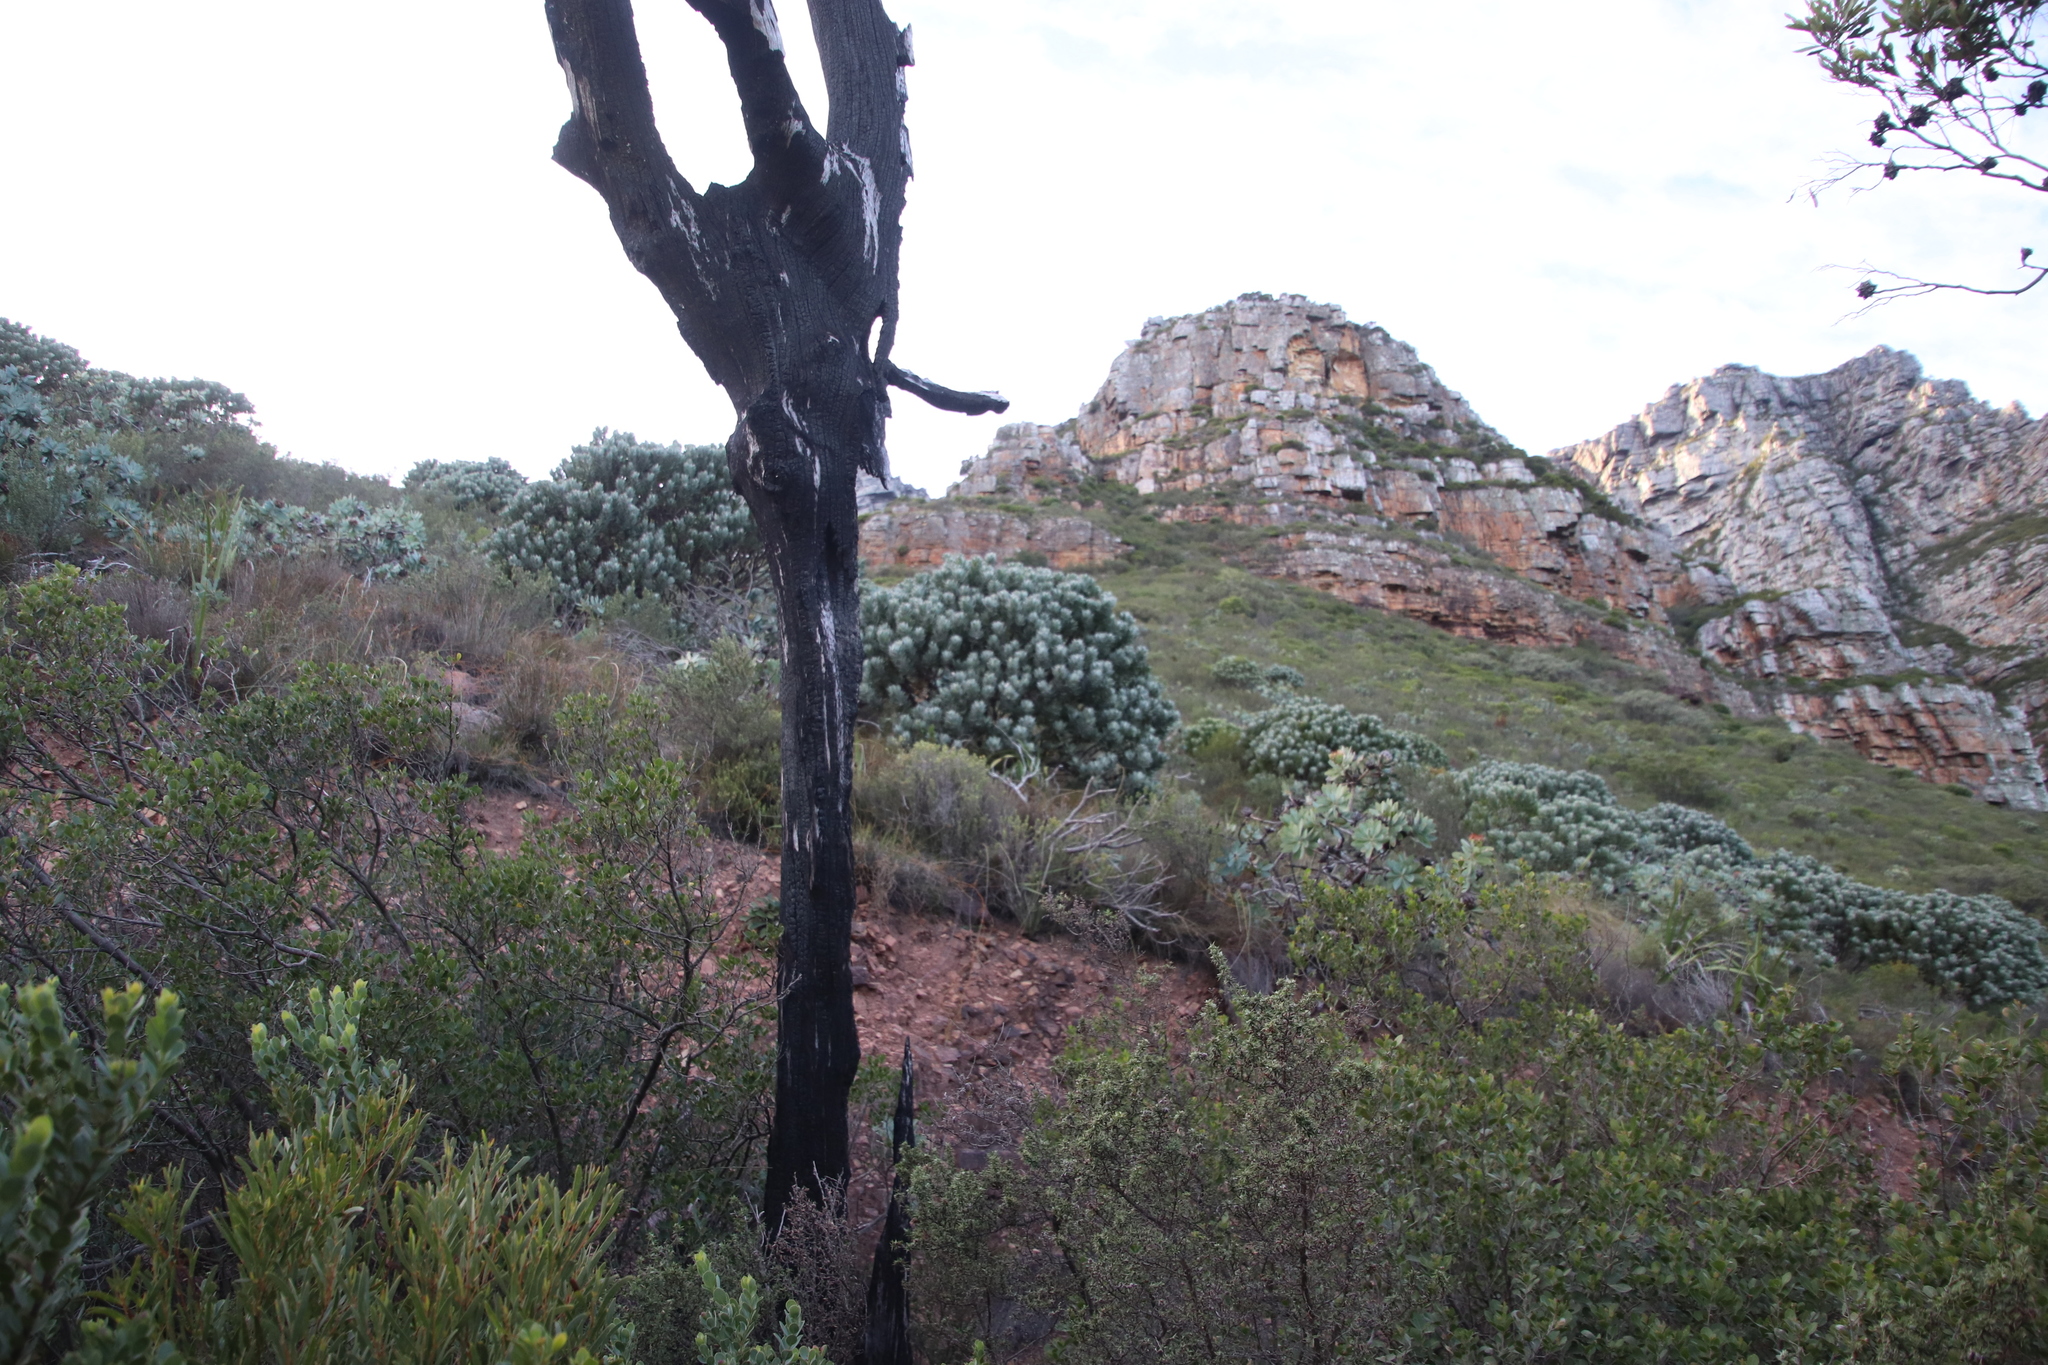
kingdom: Plantae
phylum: Tracheophyta
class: Magnoliopsida
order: Proteales
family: Proteaceae
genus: Leucospermum
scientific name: Leucospermum conocarpodendron
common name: Tree pincushion
